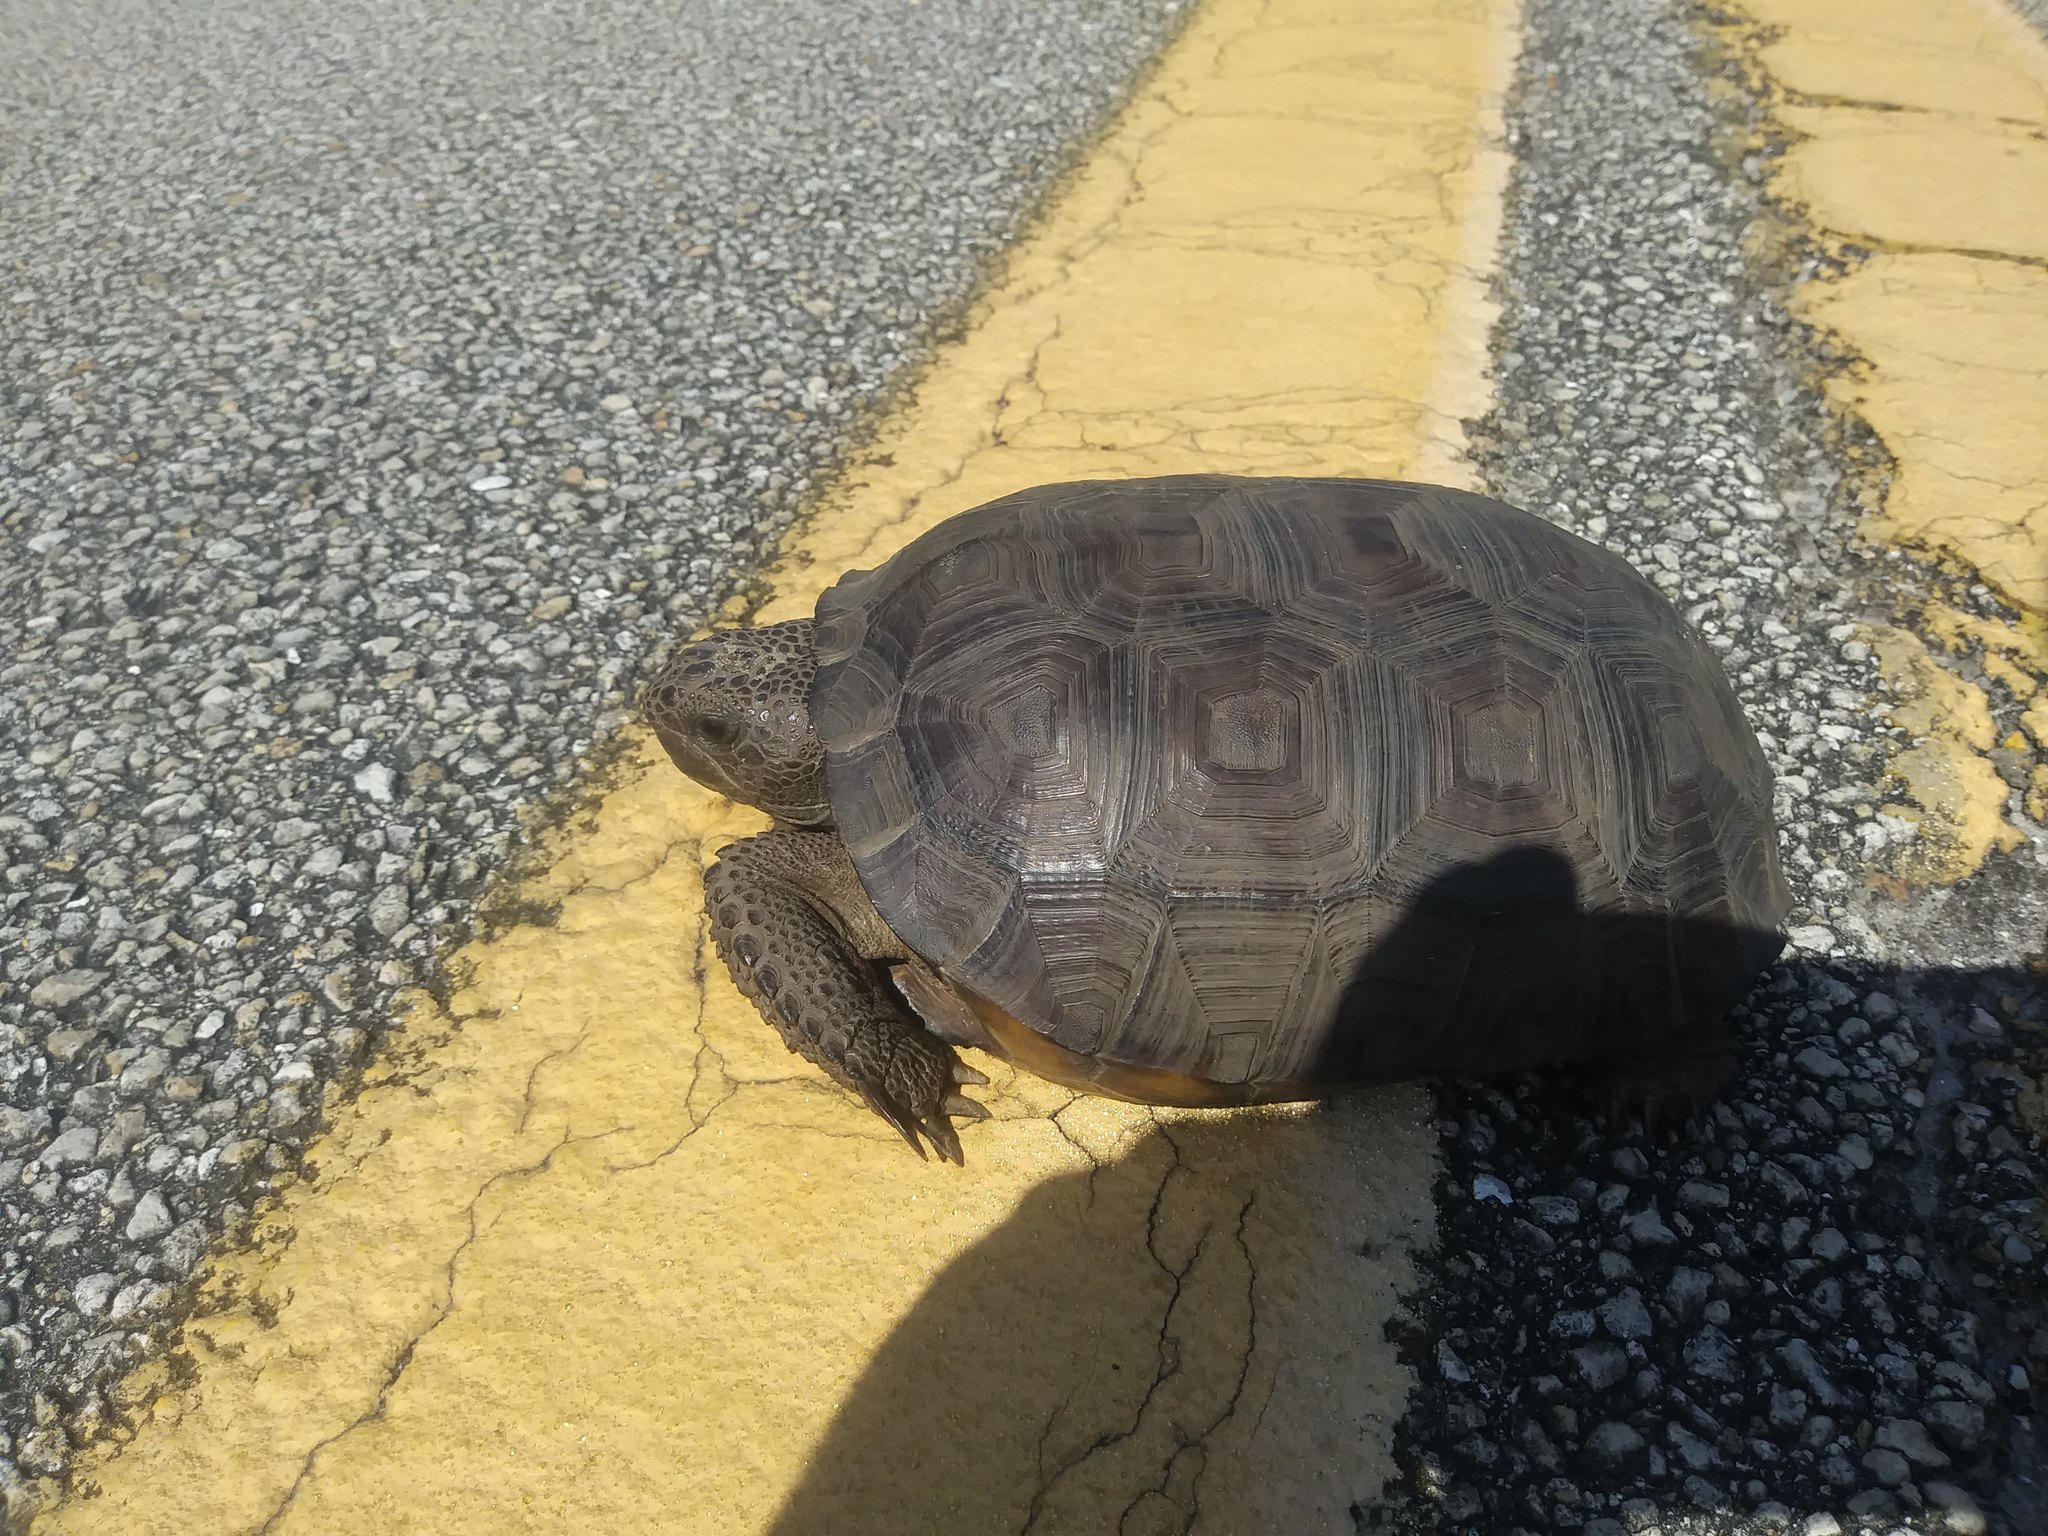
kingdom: Animalia
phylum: Chordata
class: Testudines
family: Testudinidae
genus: Gopherus
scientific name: Gopherus polyphemus
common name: Florida gopher tortoise
